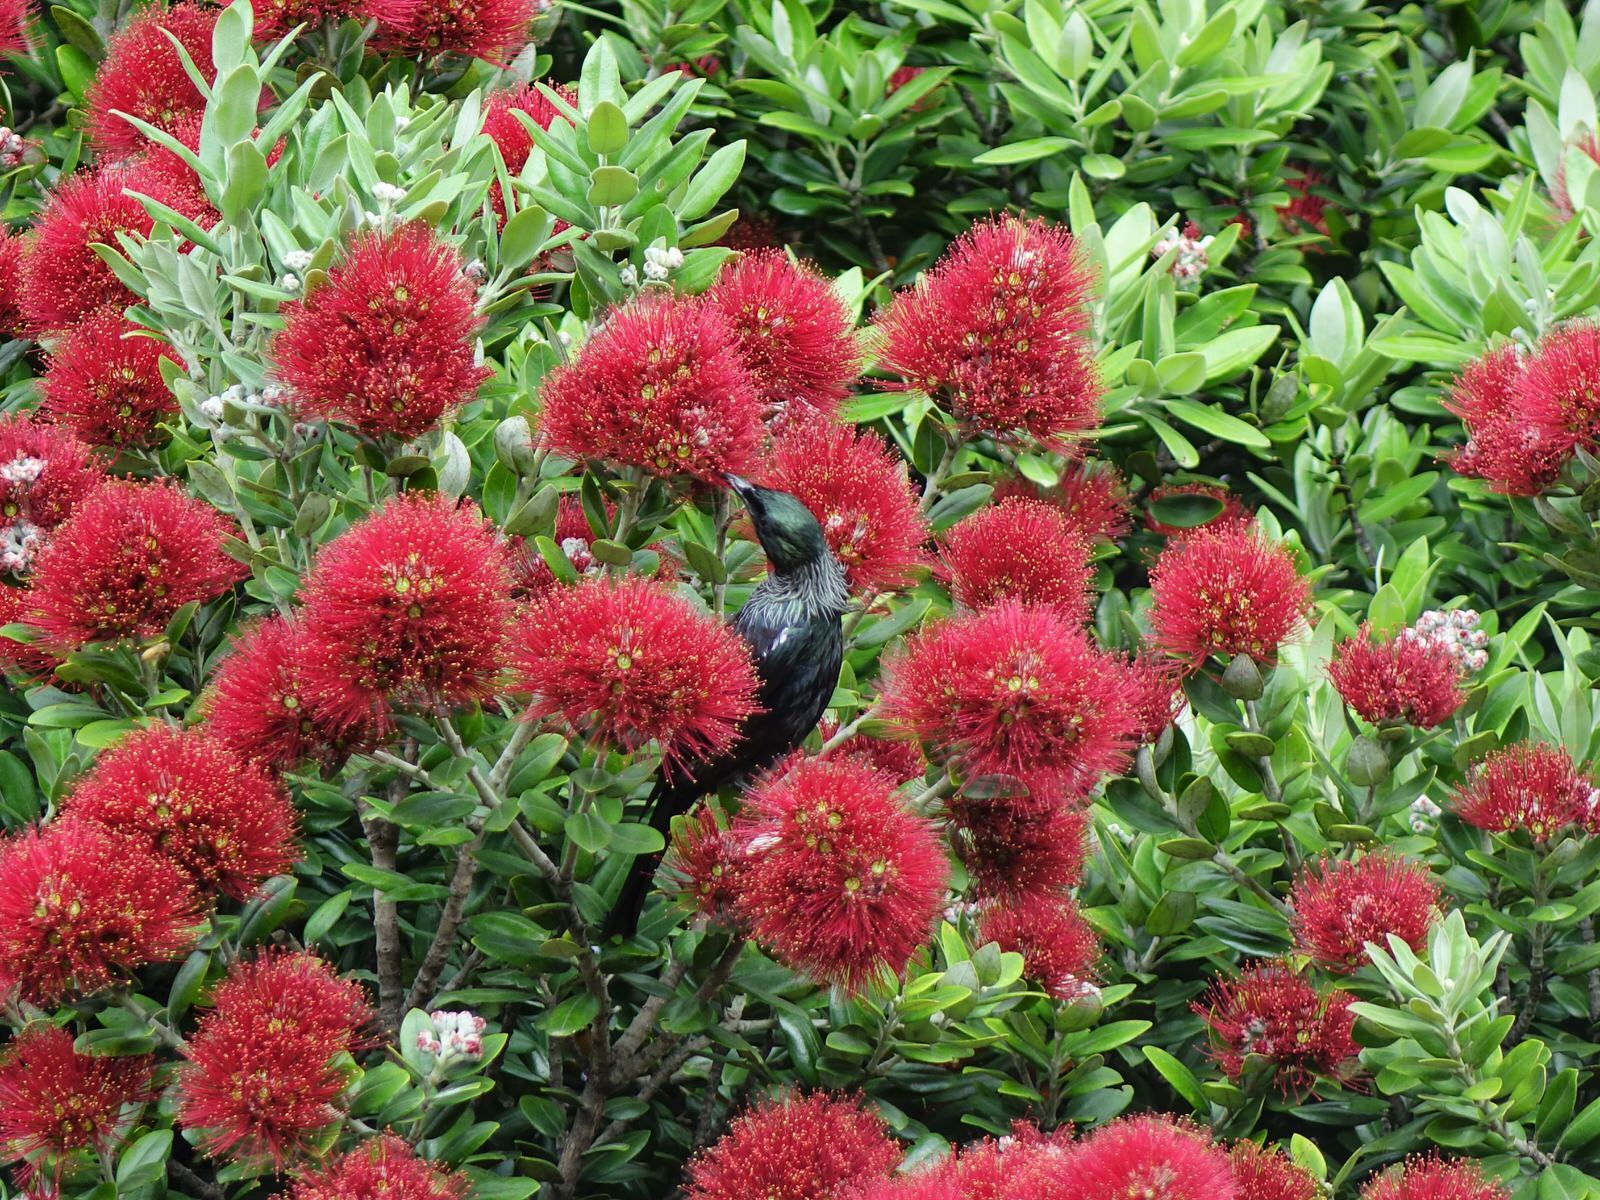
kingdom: Animalia
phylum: Chordata
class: Aves
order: Passeriformes
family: Meliphagidae
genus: Prosthemadera
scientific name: Prosthemadera novaeseelandiae
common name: Tui
